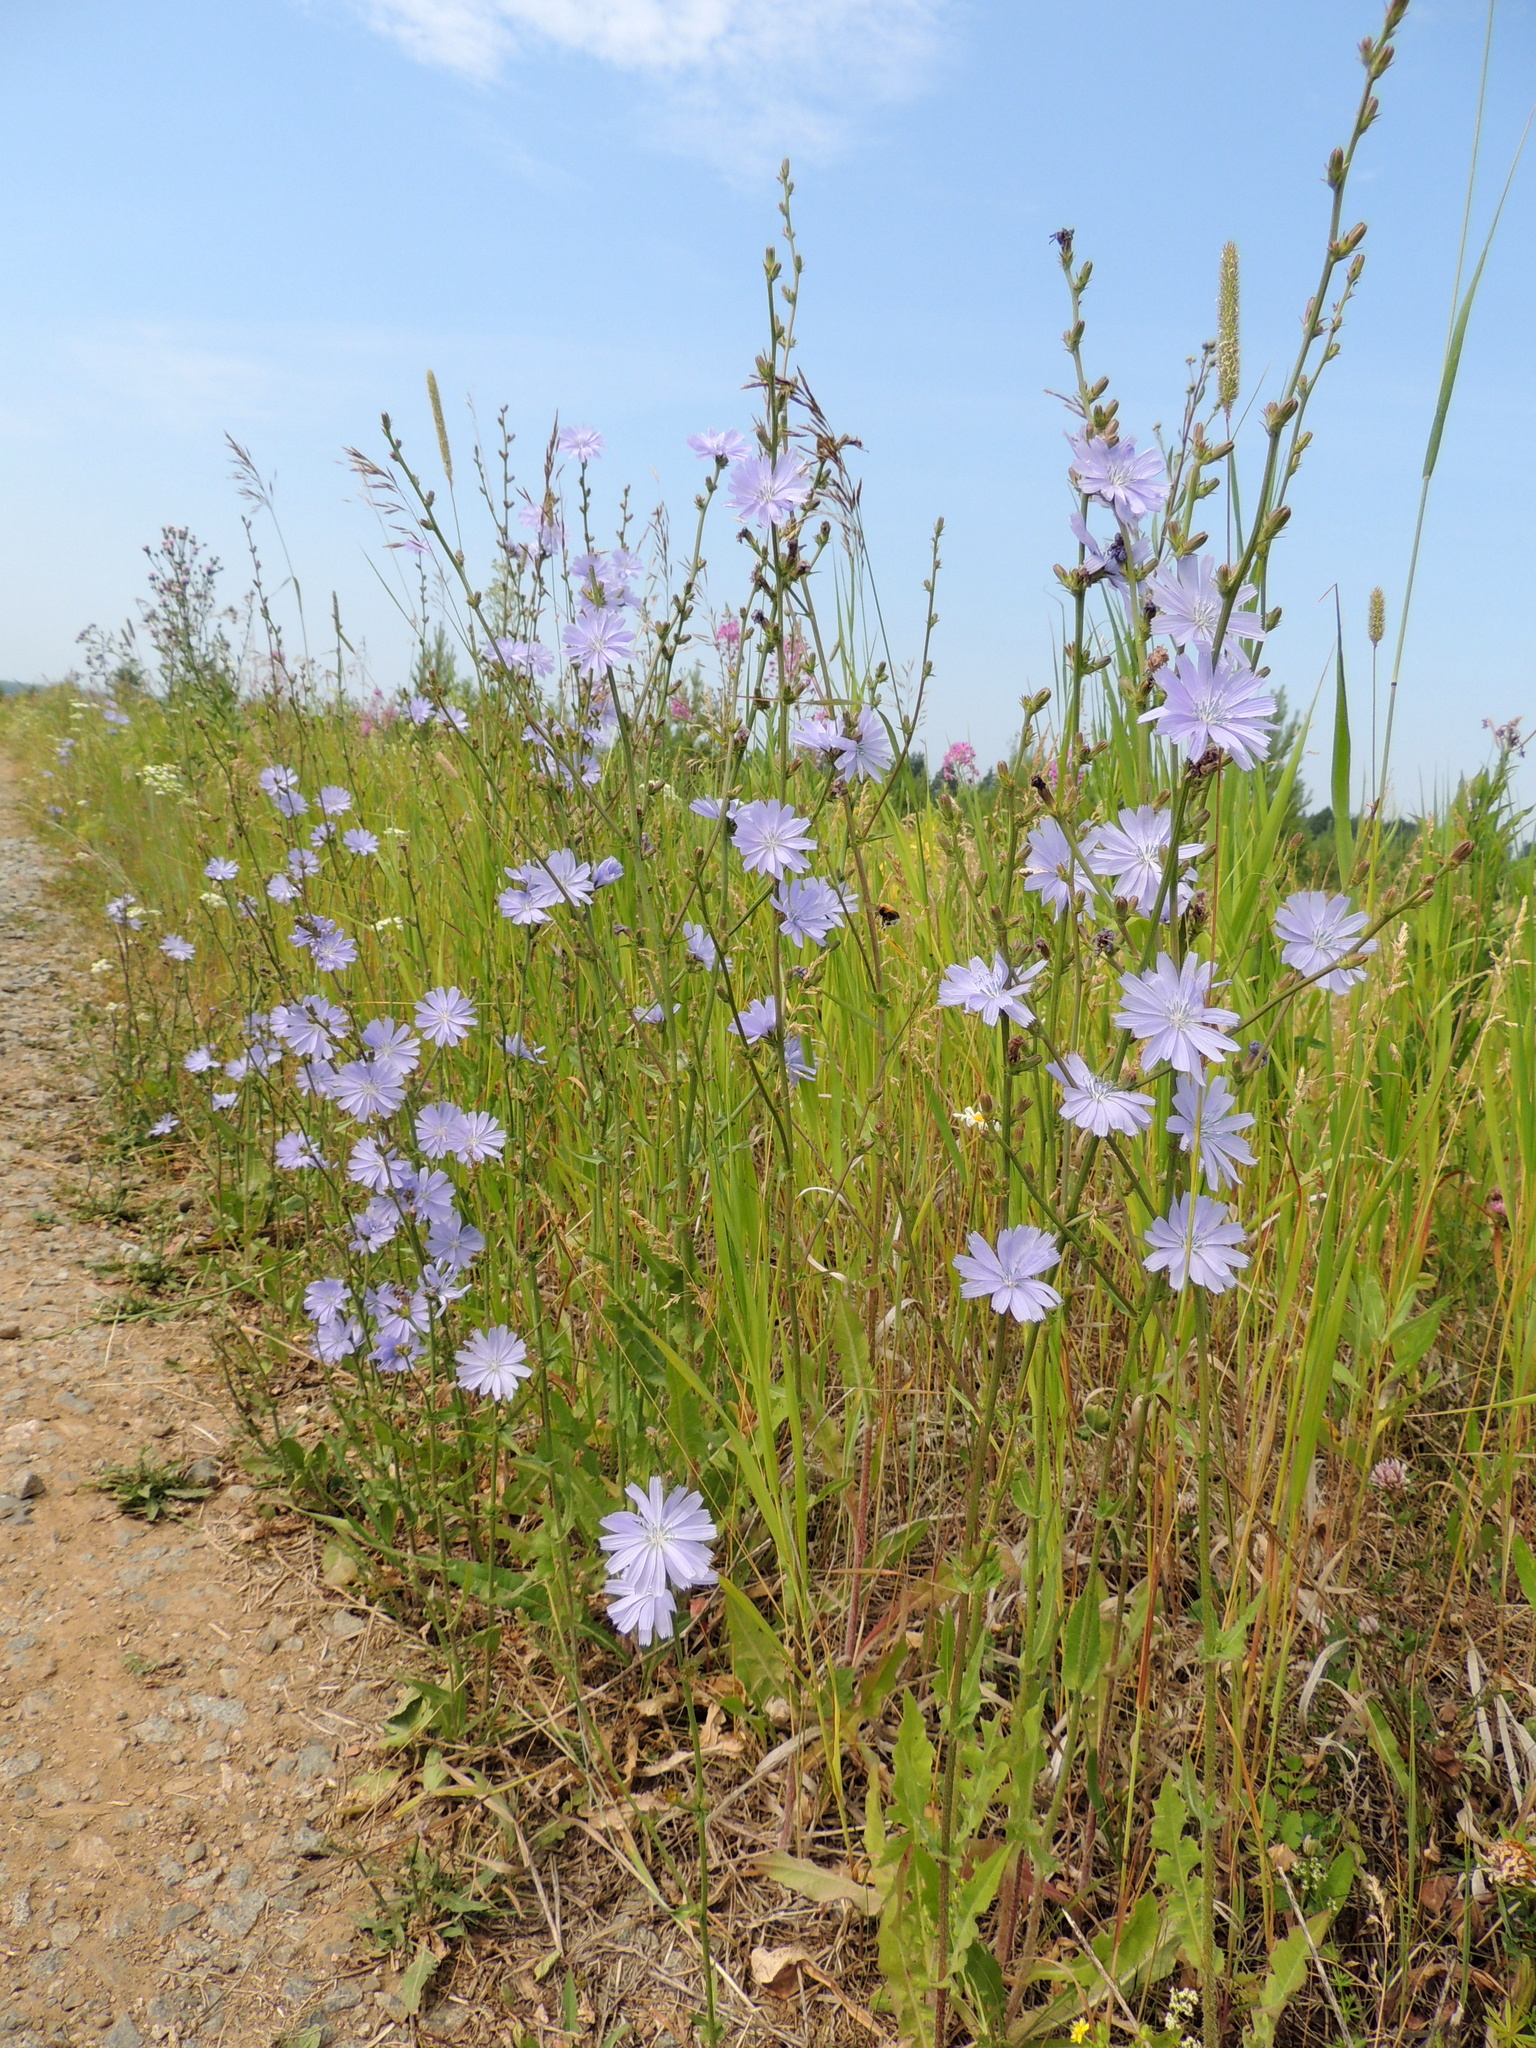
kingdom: Plantae
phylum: Tracheophyta
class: Magnoliopsida
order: Asterales
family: Asteraceae
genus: Cichorium
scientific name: Cichorium intybus
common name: Chicory
